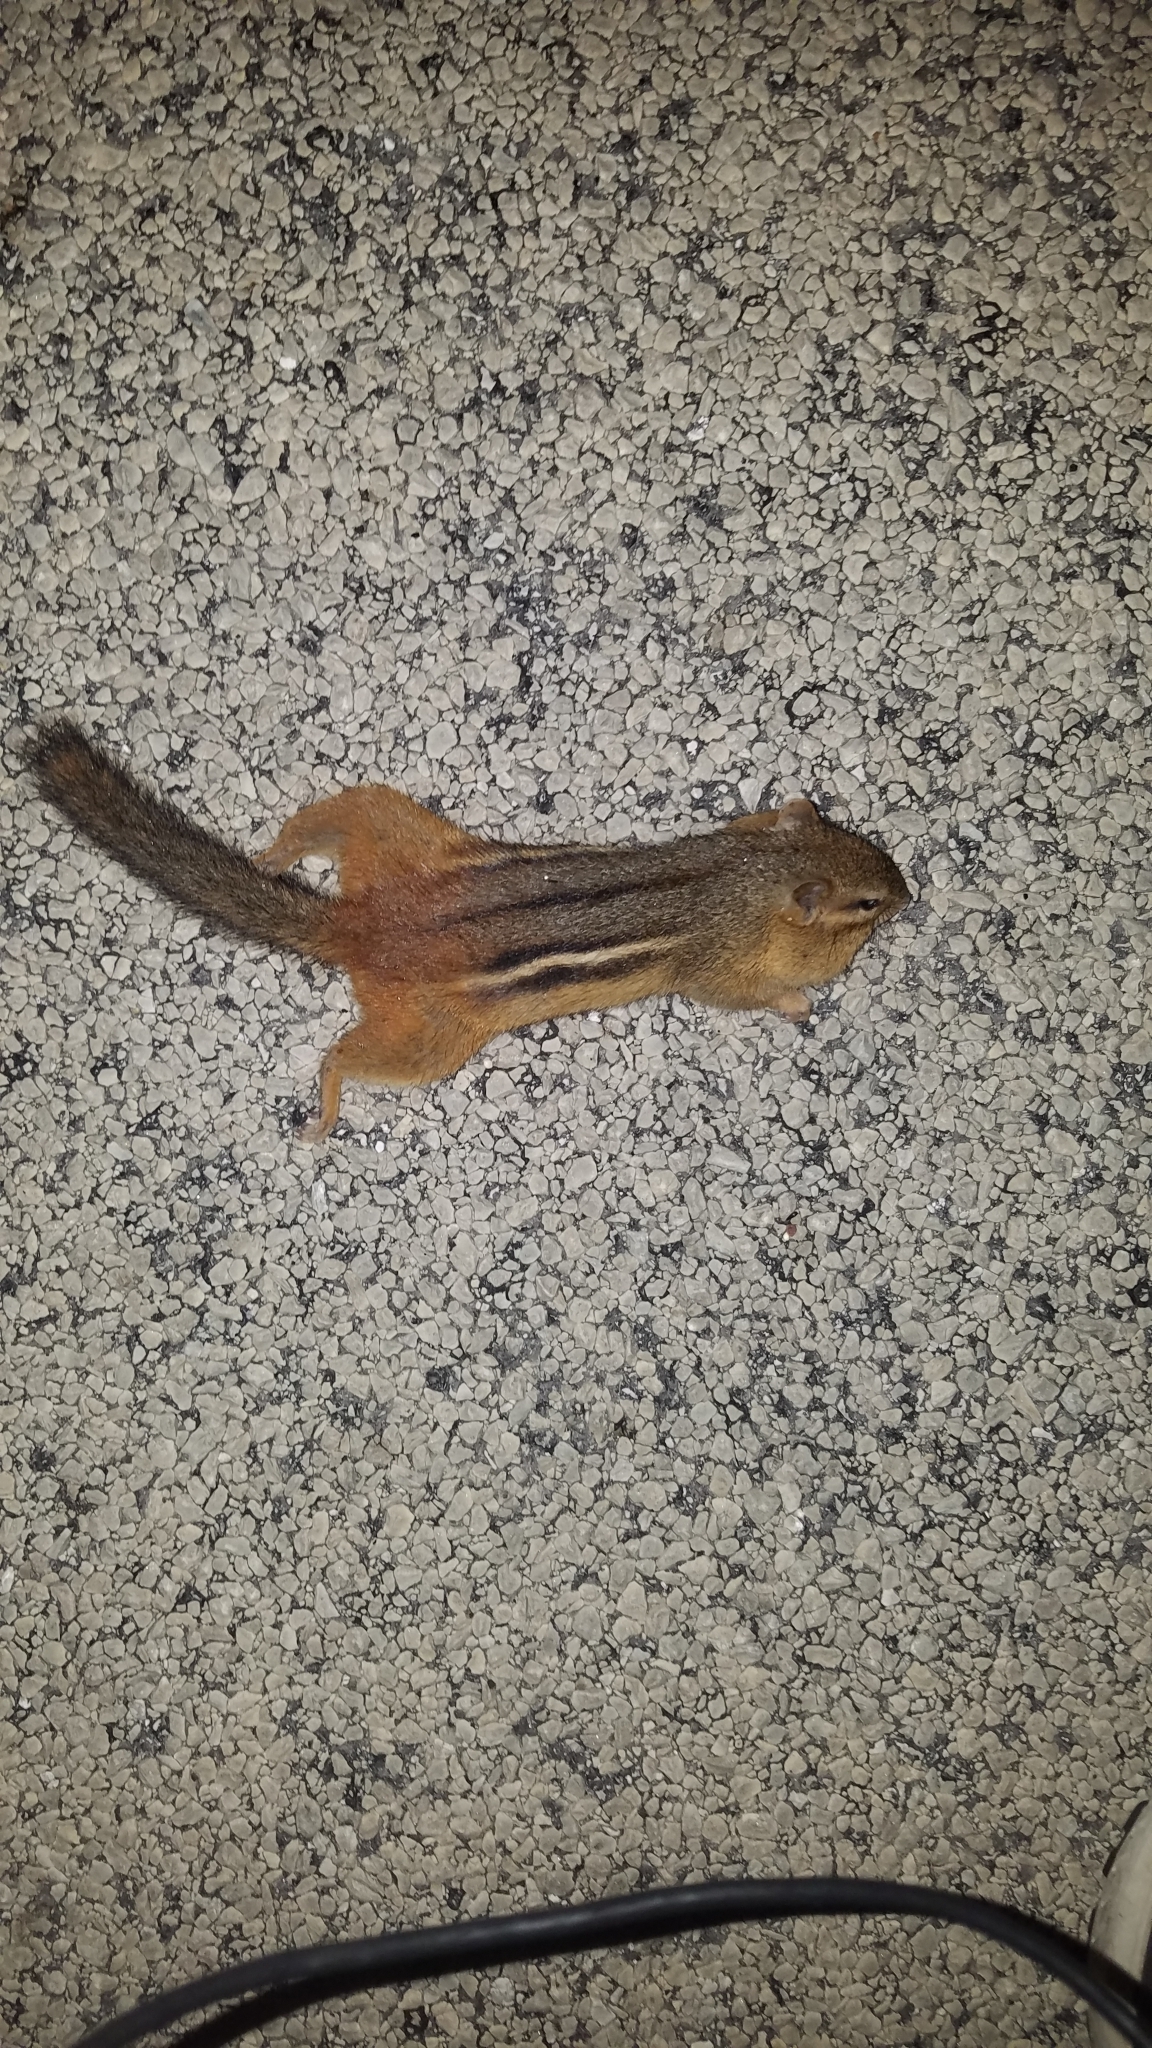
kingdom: Animalia
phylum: Chordata
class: Mammalia
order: Rodentia
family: Sciuridae
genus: Tamias
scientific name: Tamias striatus
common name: Eastern chipmunk
